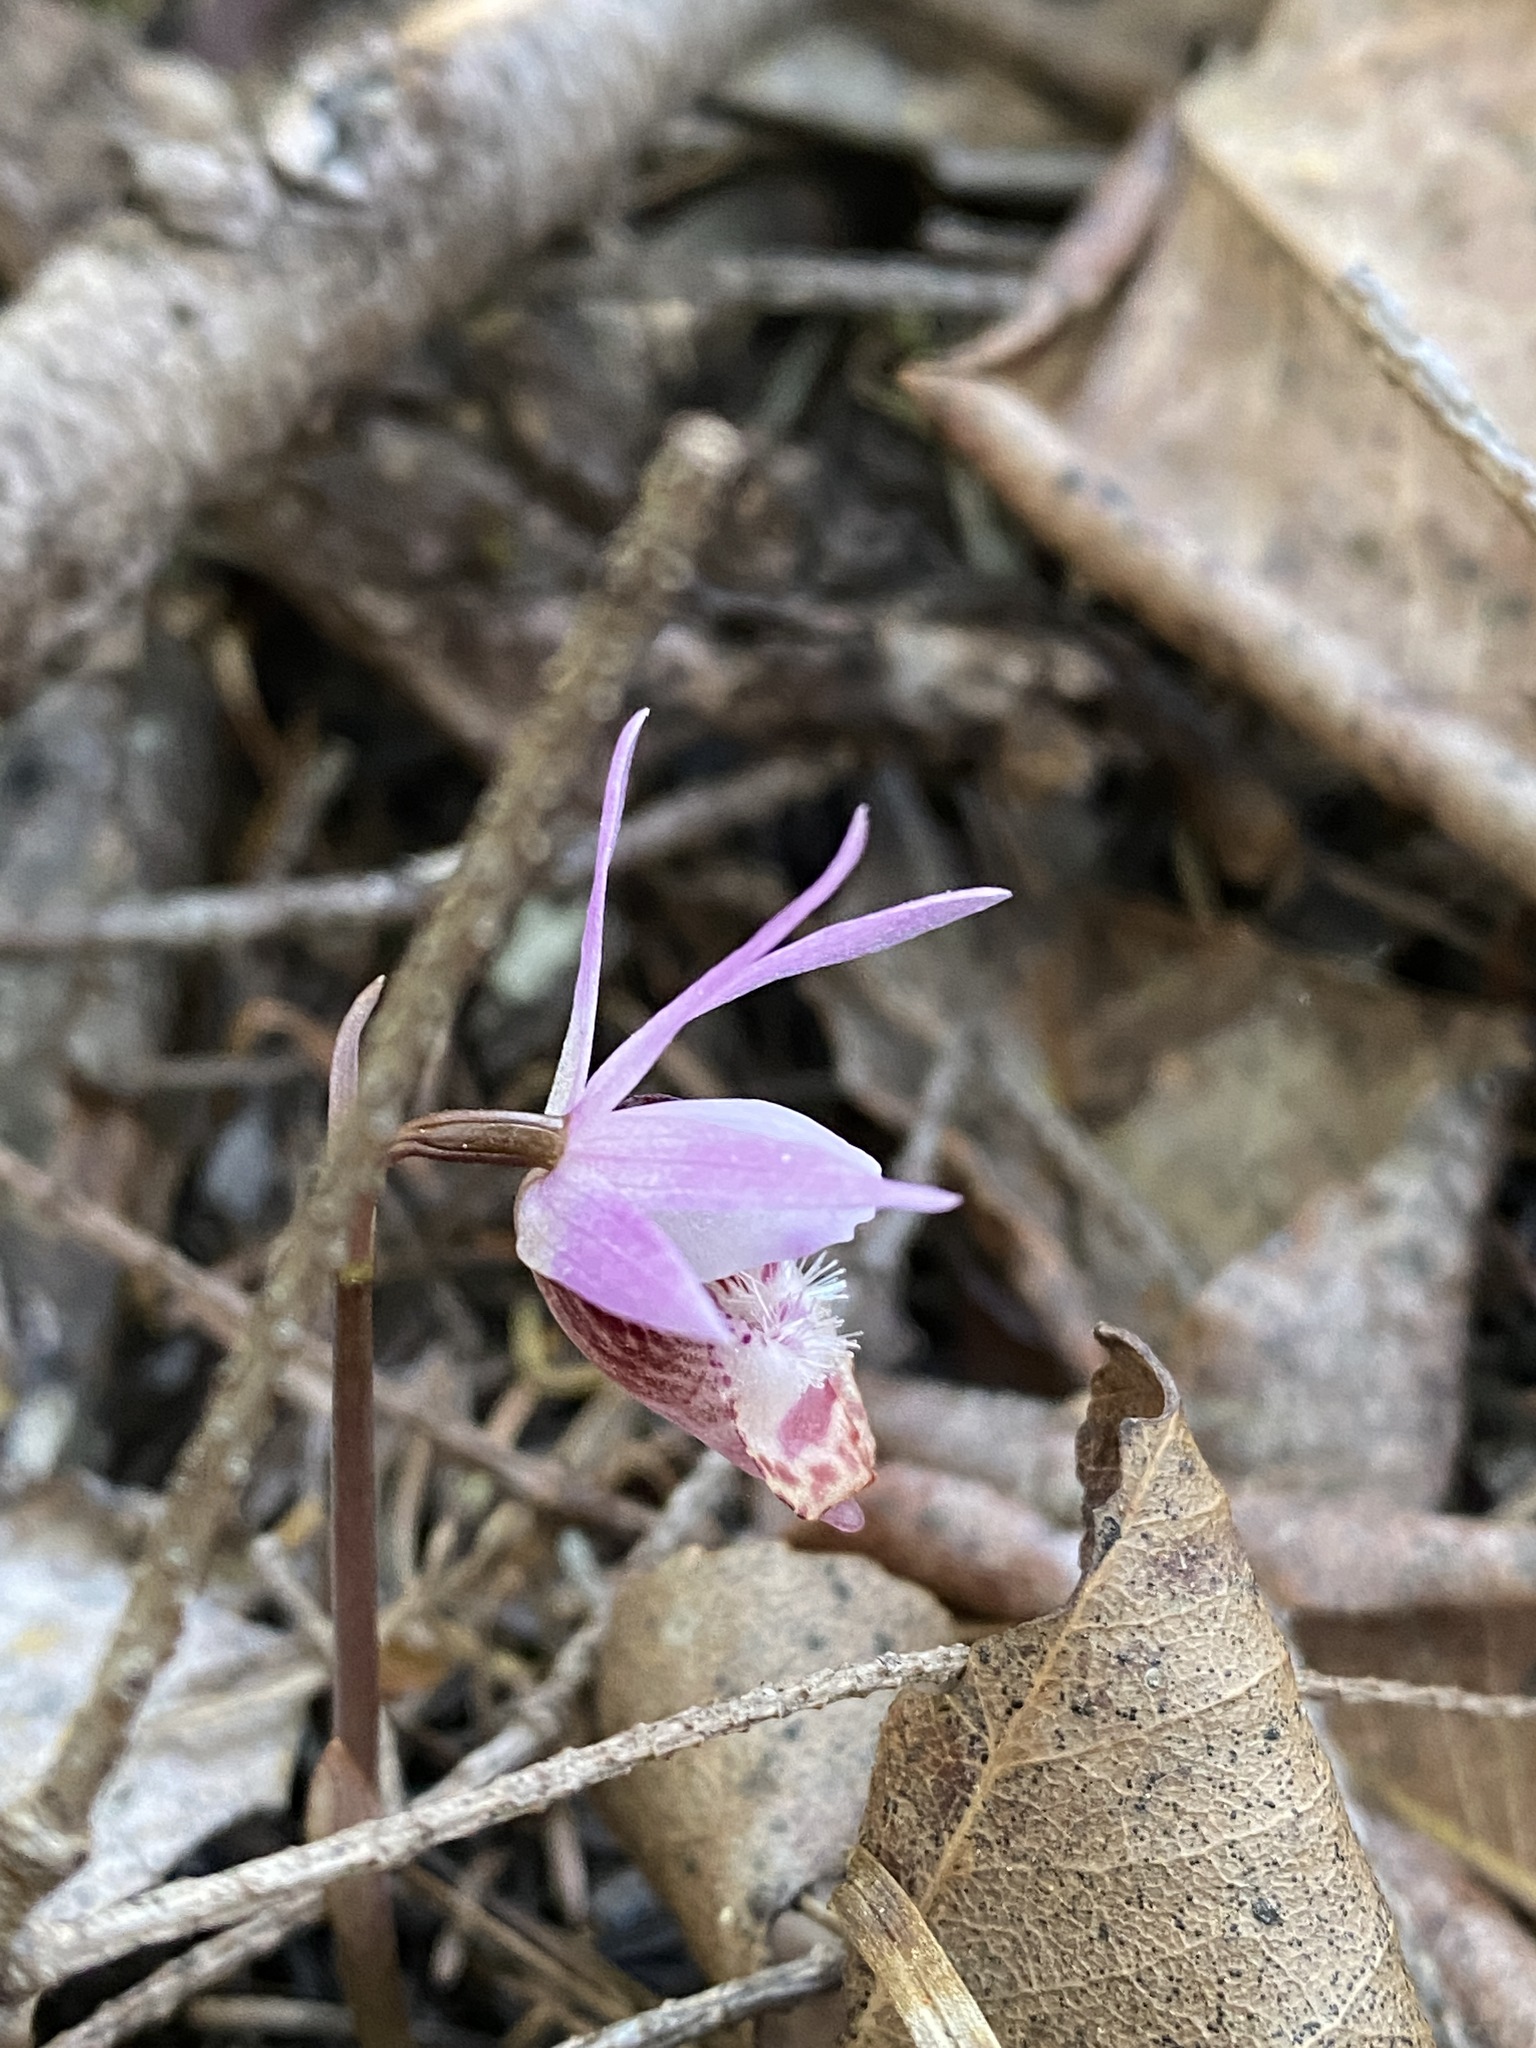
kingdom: Plantae
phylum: Tracheophyta
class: Liliopsida
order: Asparagales
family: Orchidaceae
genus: Calypso
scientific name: Calypso bulbosa
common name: Calypso
